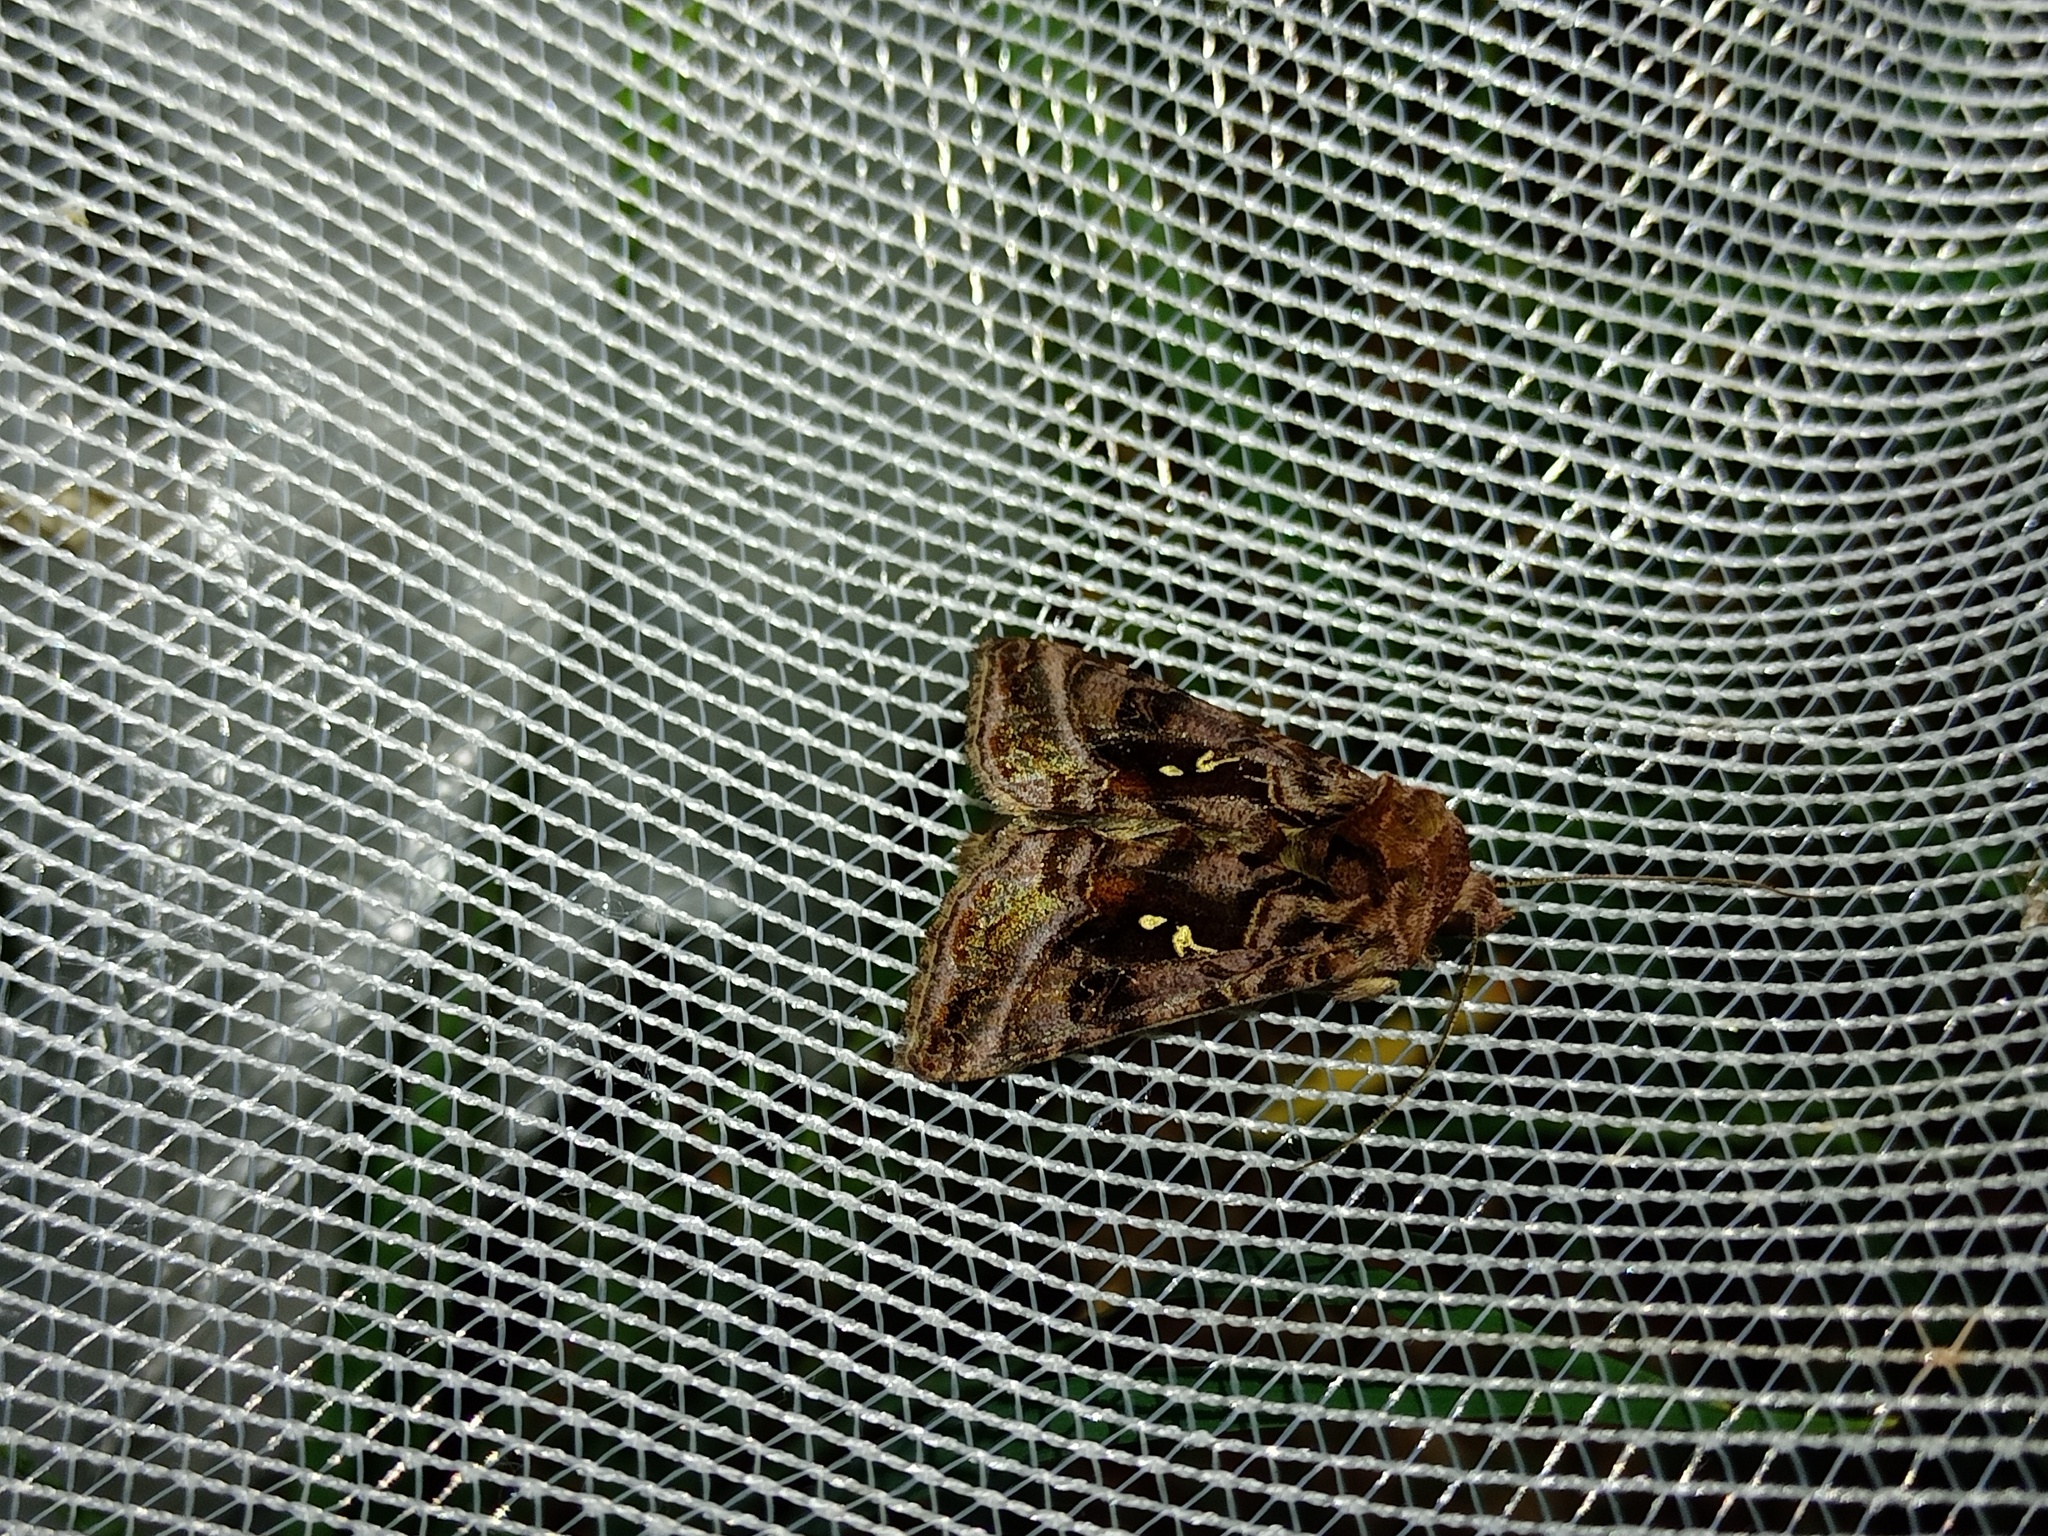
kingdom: Animalia
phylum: Arthropoda
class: Insecta
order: Lepidoptera
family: Noctuidae
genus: Autographa
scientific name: Autographa pulchrina
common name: Beautiful golden y
